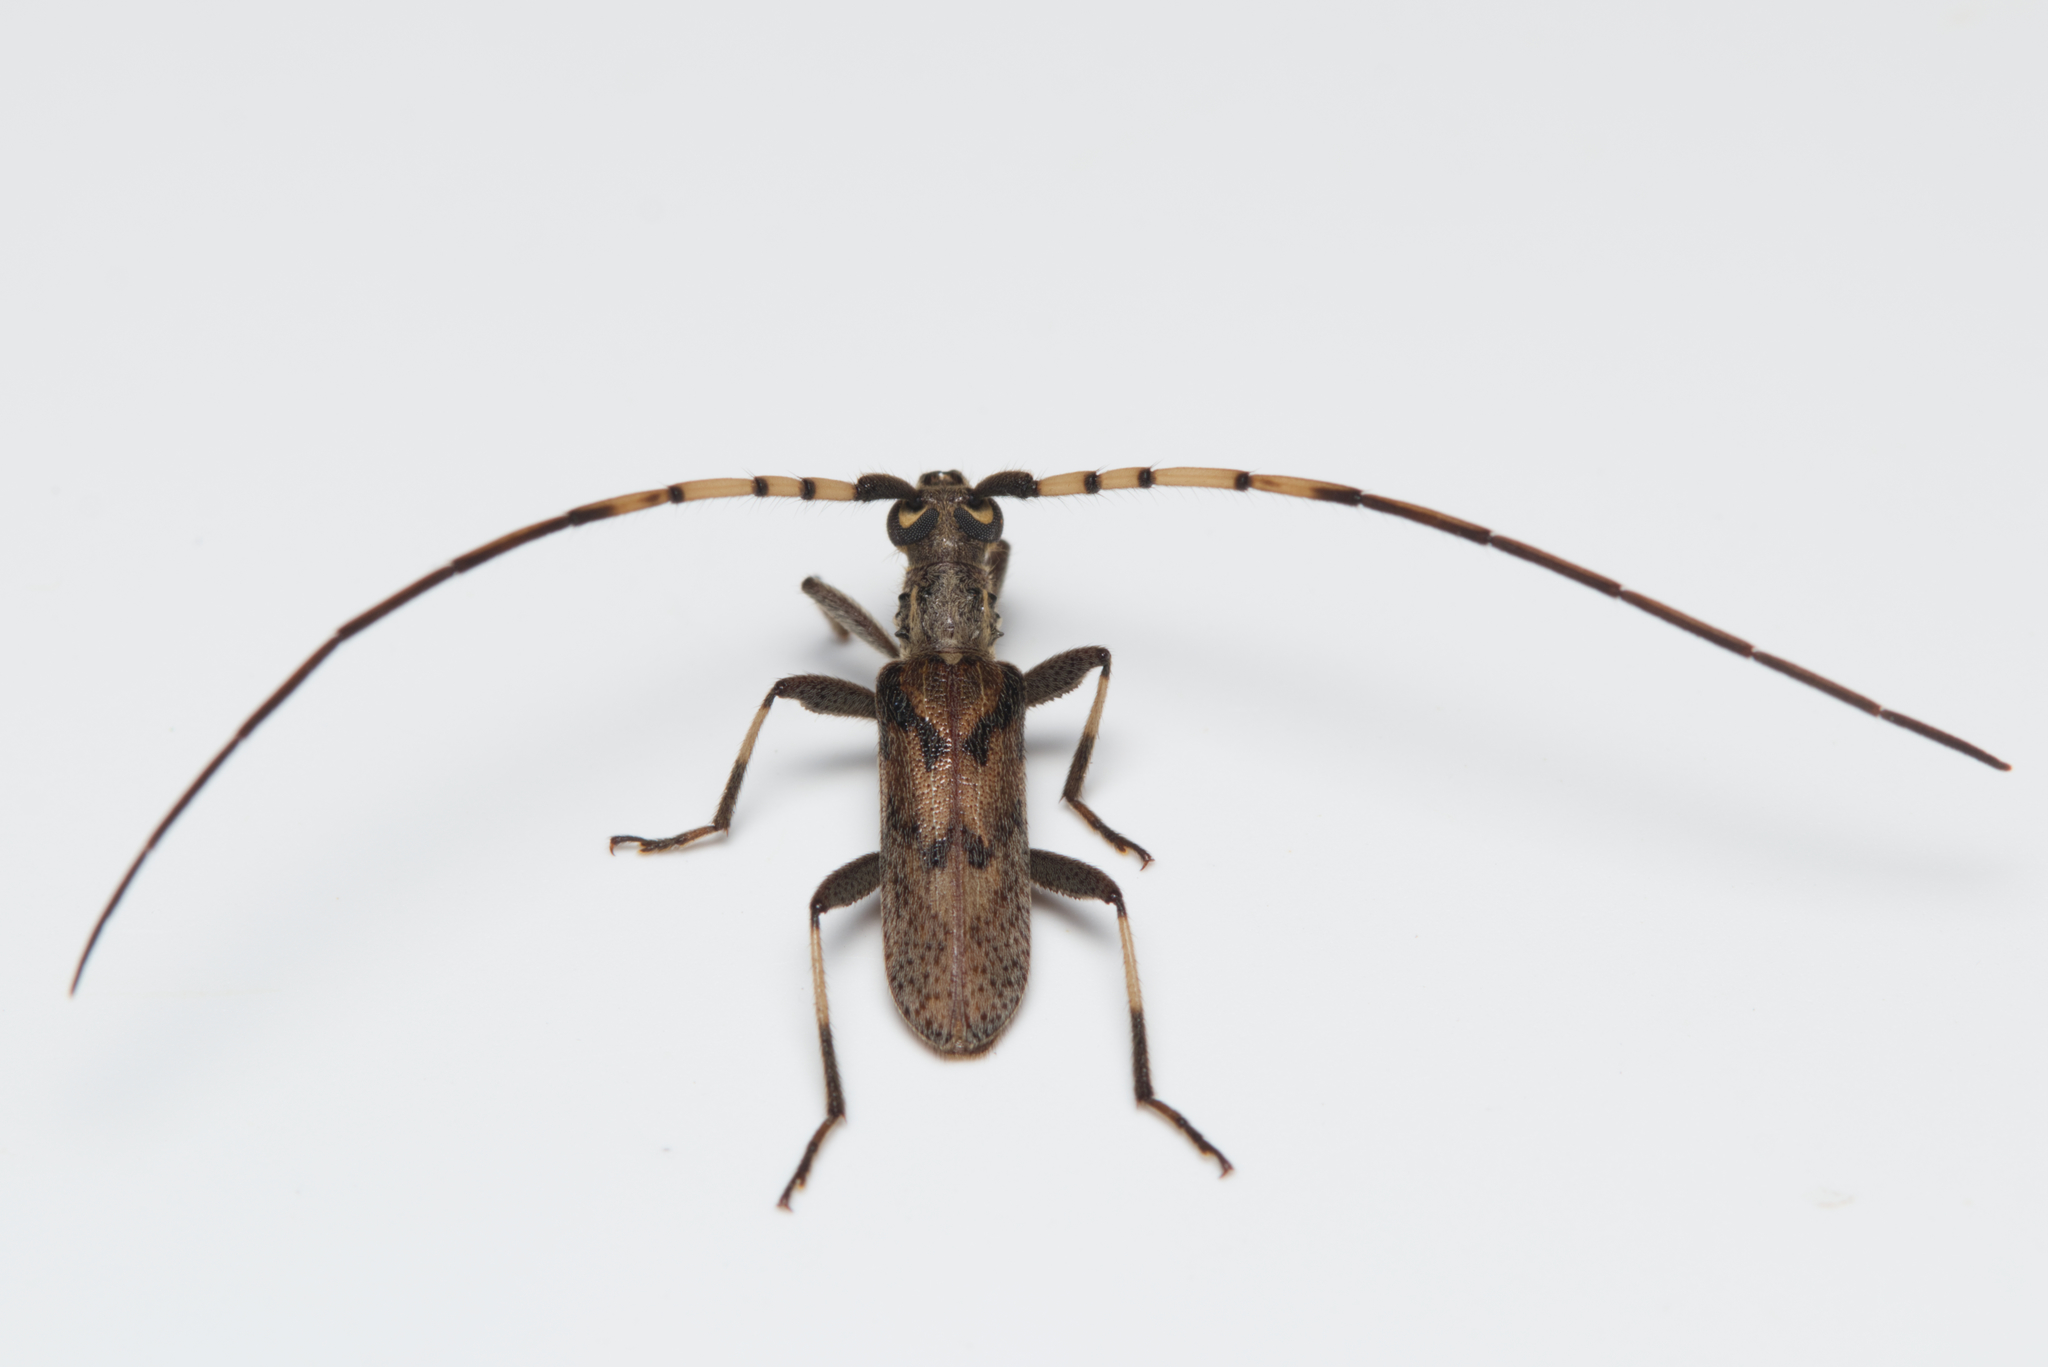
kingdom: Animalia
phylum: Arthropoda
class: Insecta
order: Coleoptera
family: Cerambycidae
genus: Didymocantha
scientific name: Didymocantha obliqua
